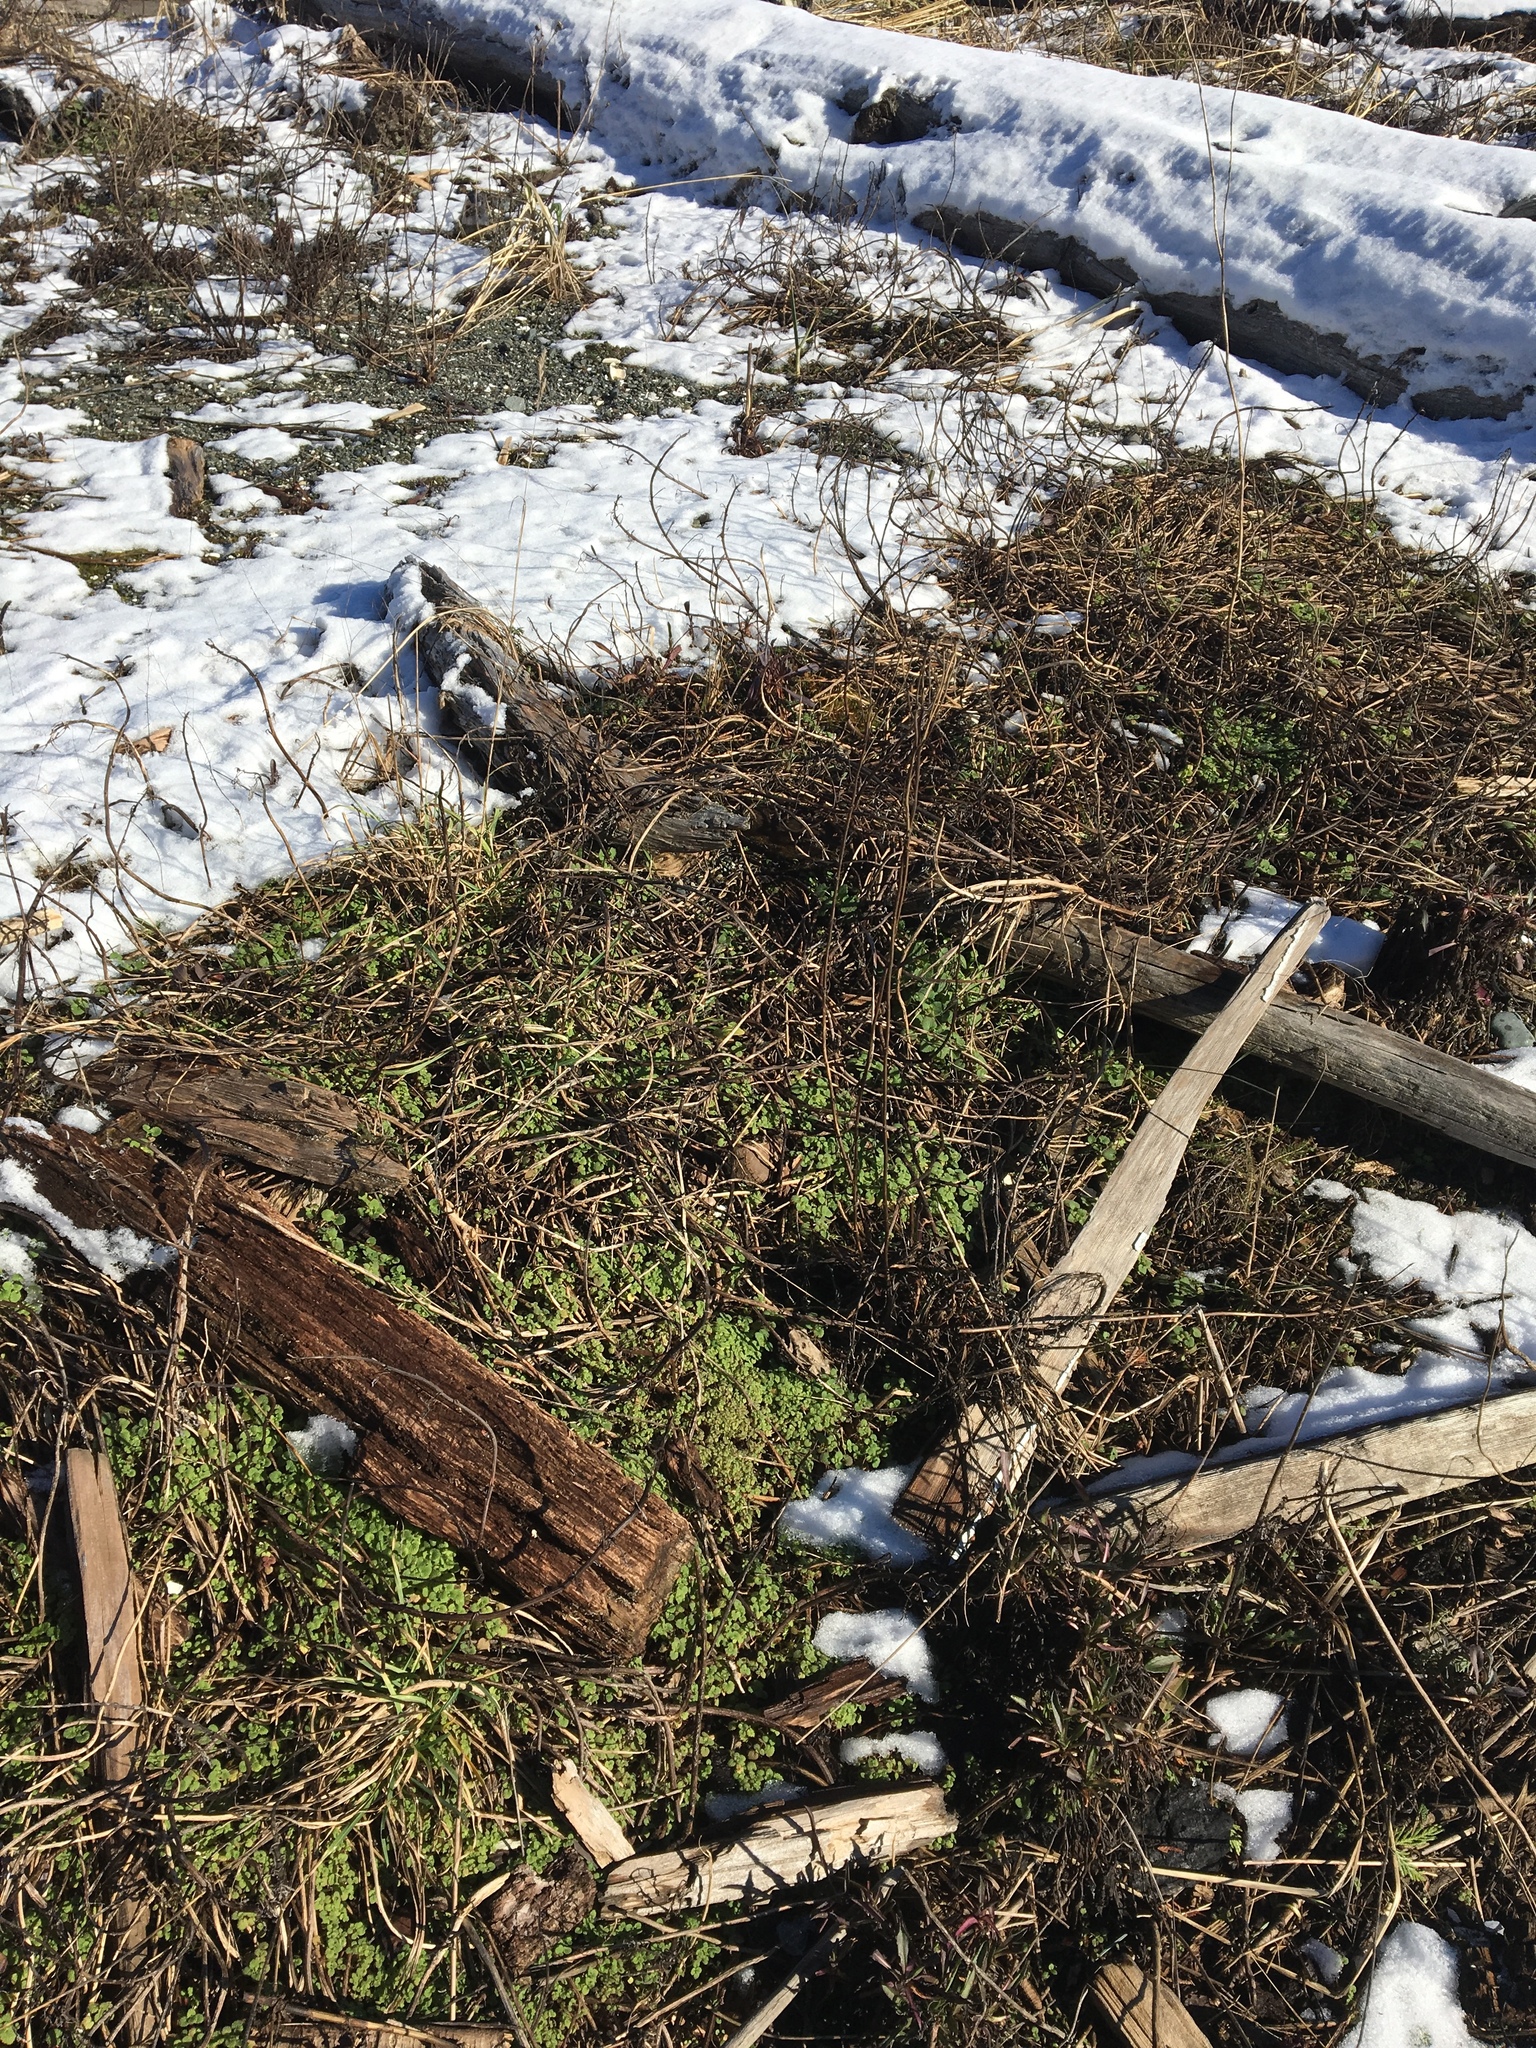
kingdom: Plantae
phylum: Tracheophyta
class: Magnoliopsida
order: Lamiales
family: Lamiaceae
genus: Lamium
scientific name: Lamium purpureum
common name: Red dead-nettle
